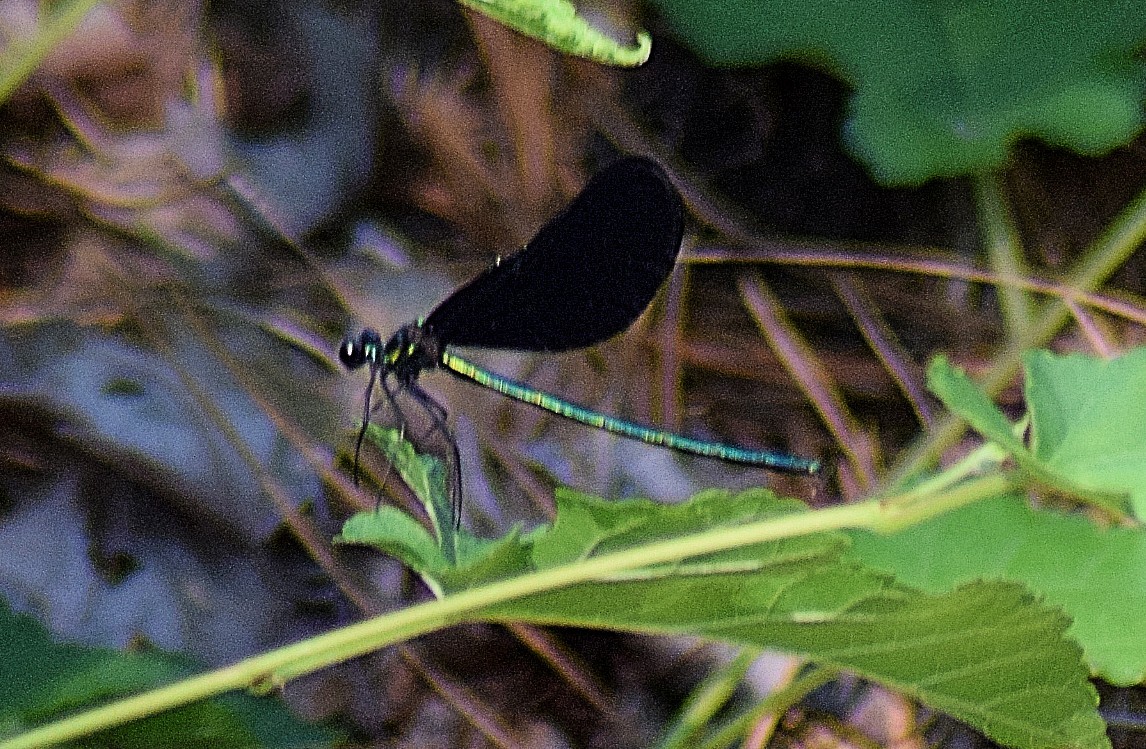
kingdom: Animalia
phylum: Arthropoda
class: Insecta
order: Odonata
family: Calopterygidae
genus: Calopteryx
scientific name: Calopteryx maculata
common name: Ebony jewelwing
